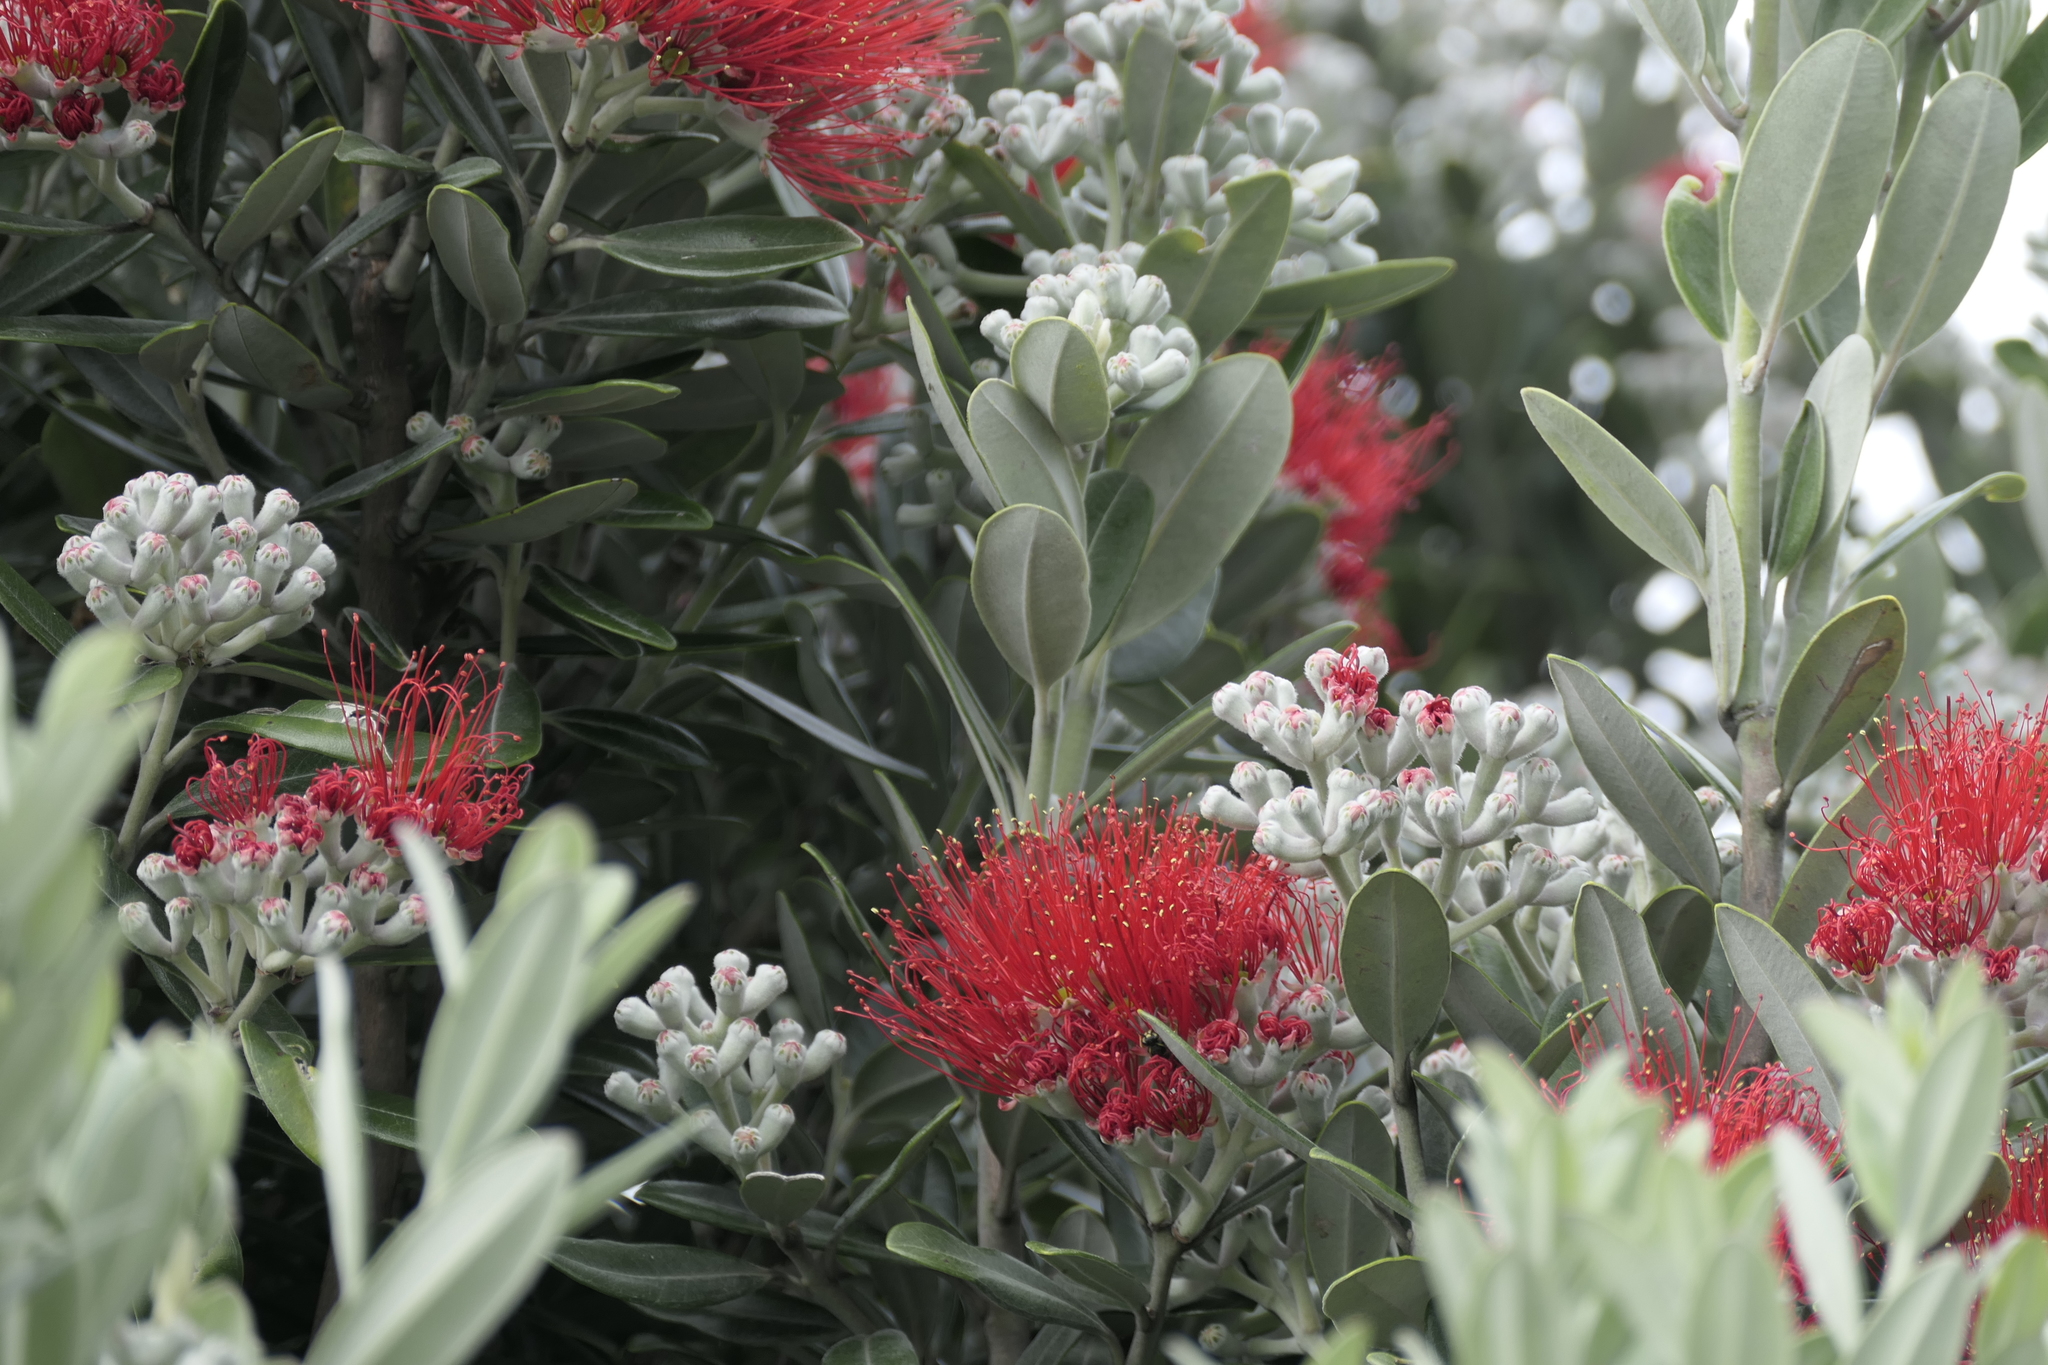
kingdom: Plantae
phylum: Tracheophyta
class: Magnoliopsida
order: Myrtales
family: Myrtaceae
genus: Metrosideros
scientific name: Metrosideros excelsa
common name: New zealand christmastree
